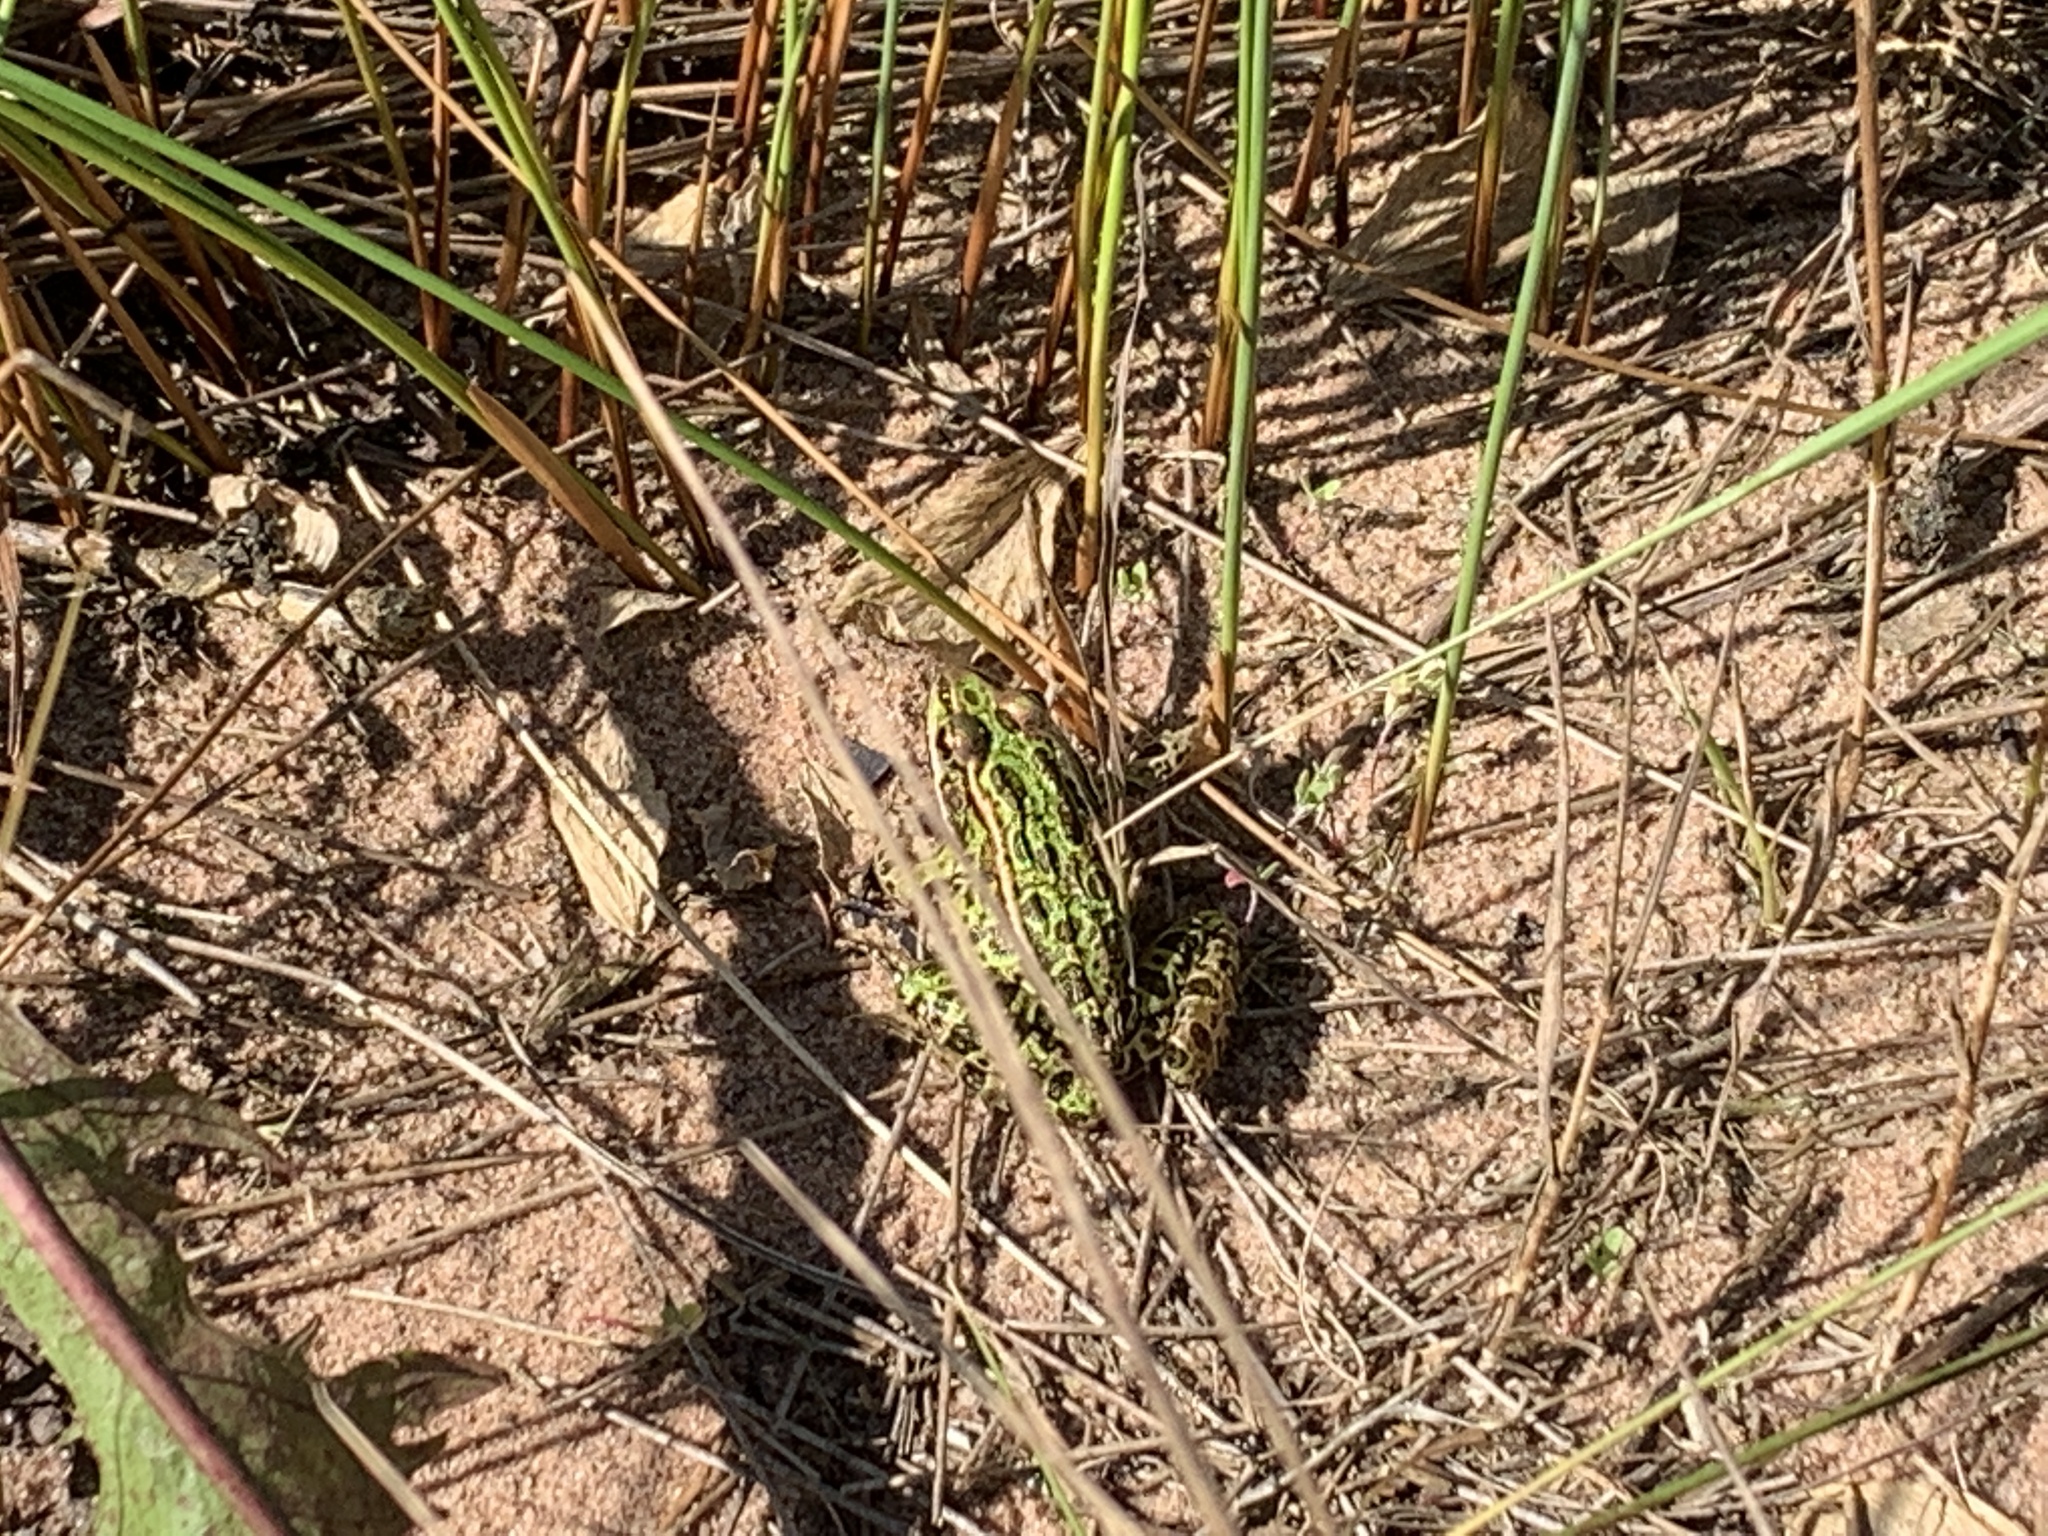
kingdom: Animalia
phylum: Chordata
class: Amphibia
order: Anura
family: Ranidae
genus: Lithobates
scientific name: Lithobates pipiens
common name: Northern leopard frog
